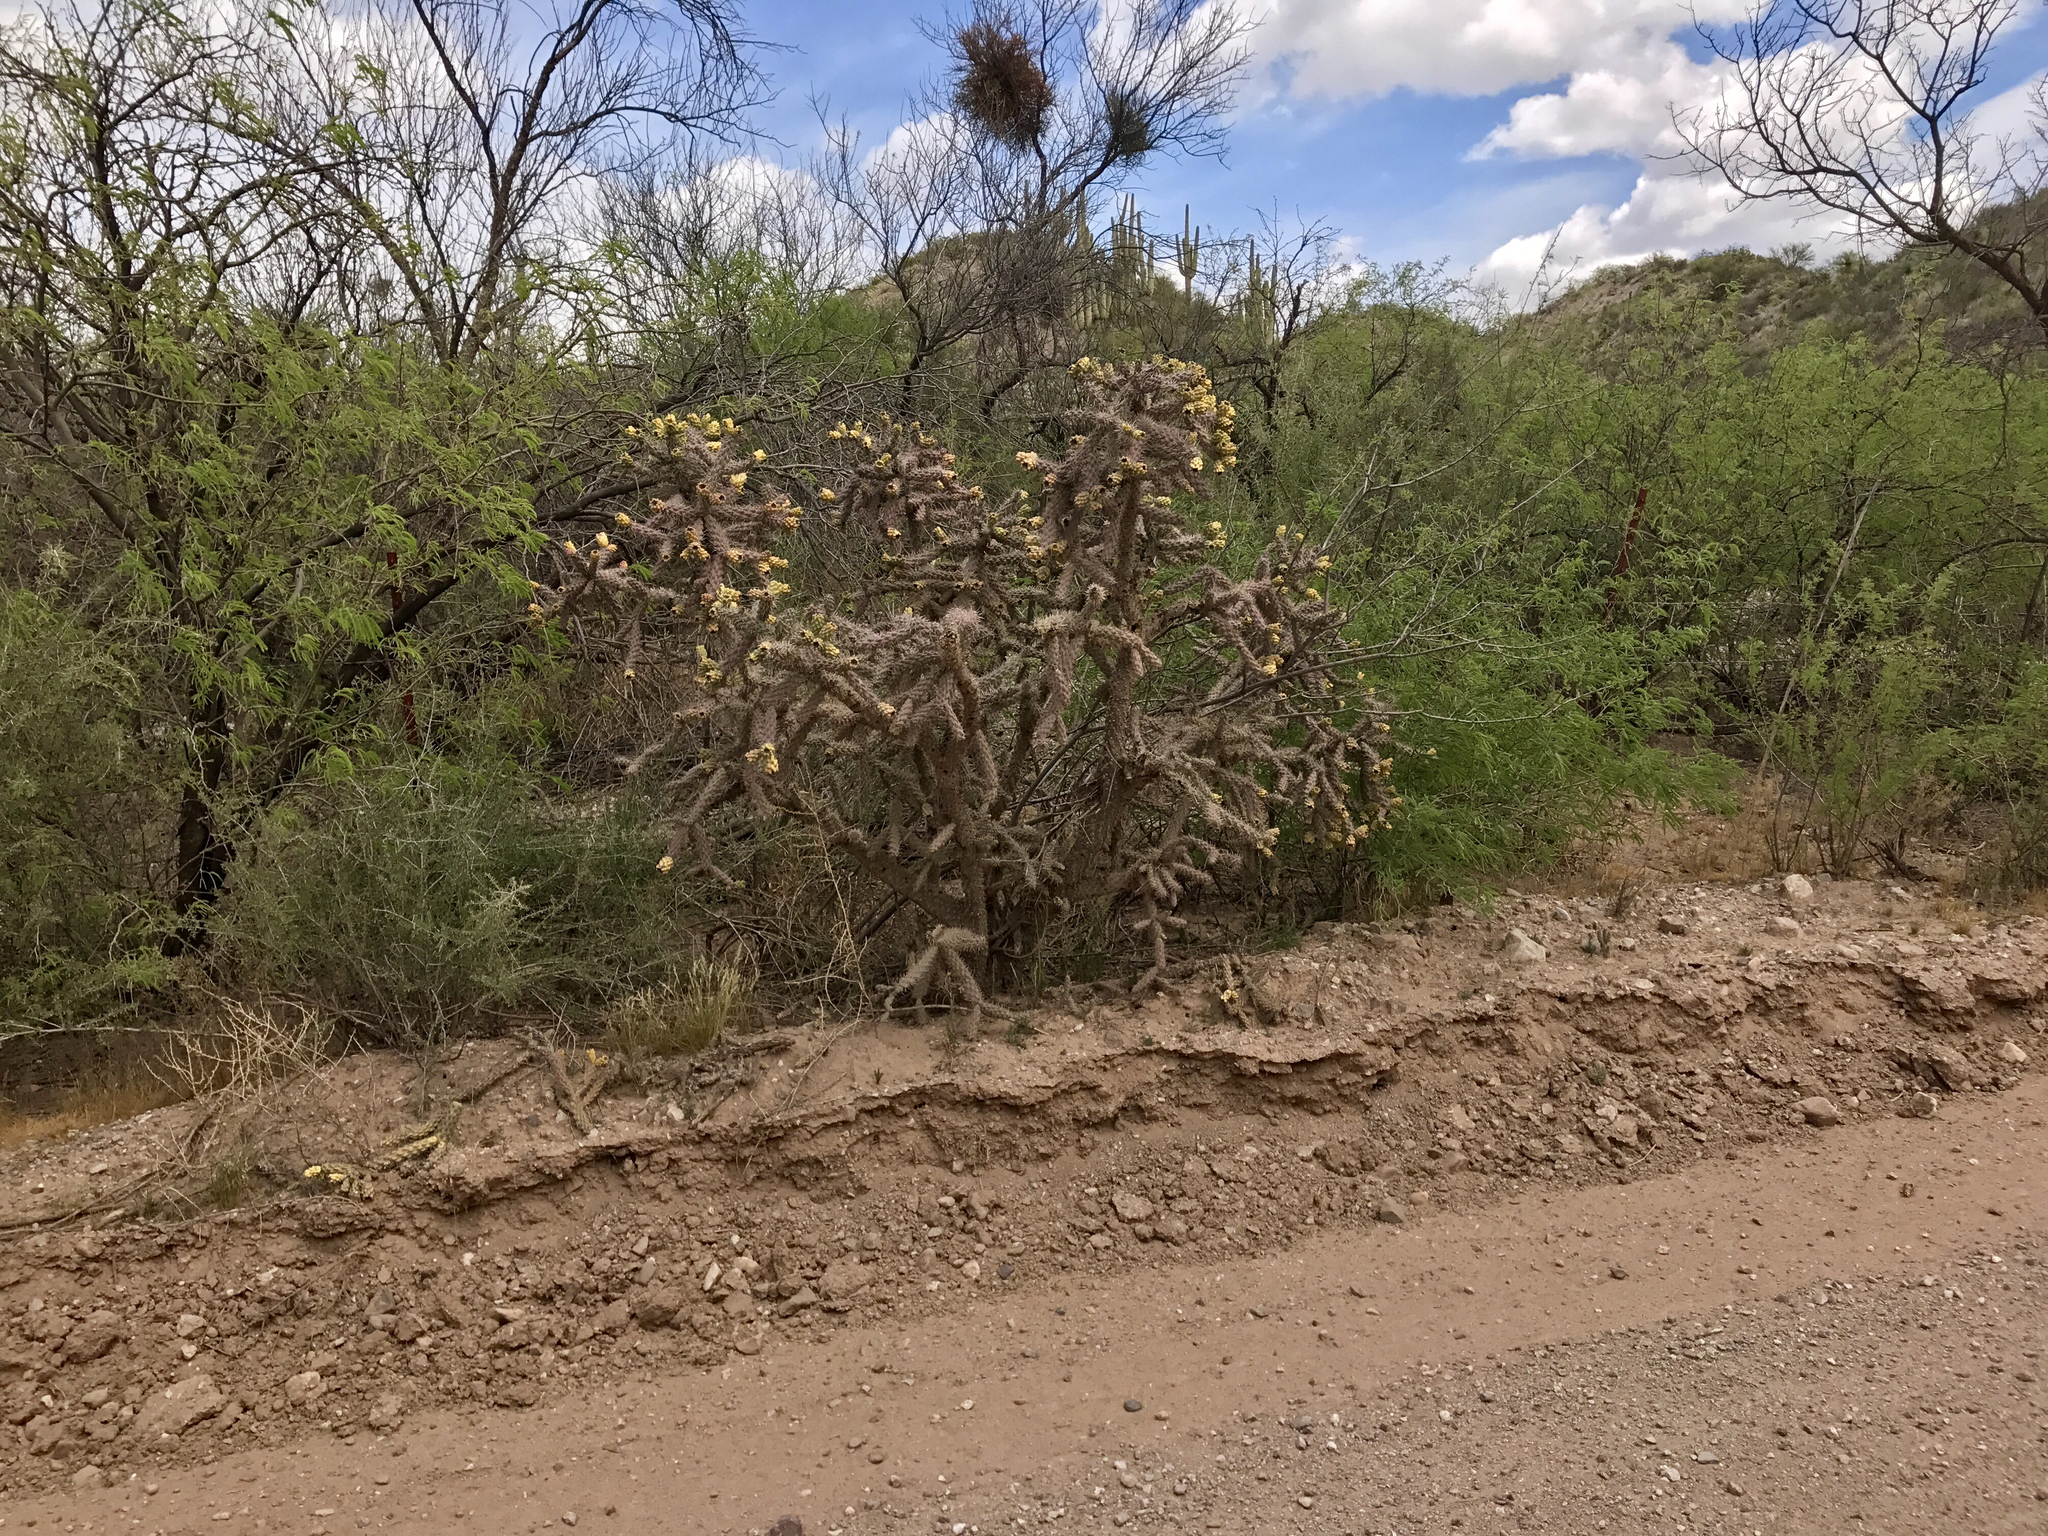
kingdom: Plantae
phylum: Tracheophyta
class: Magnoliopsida
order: Caryophyllales
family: Cactaceae
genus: Cylindropuntia
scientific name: Cylindropuntia thurberi
